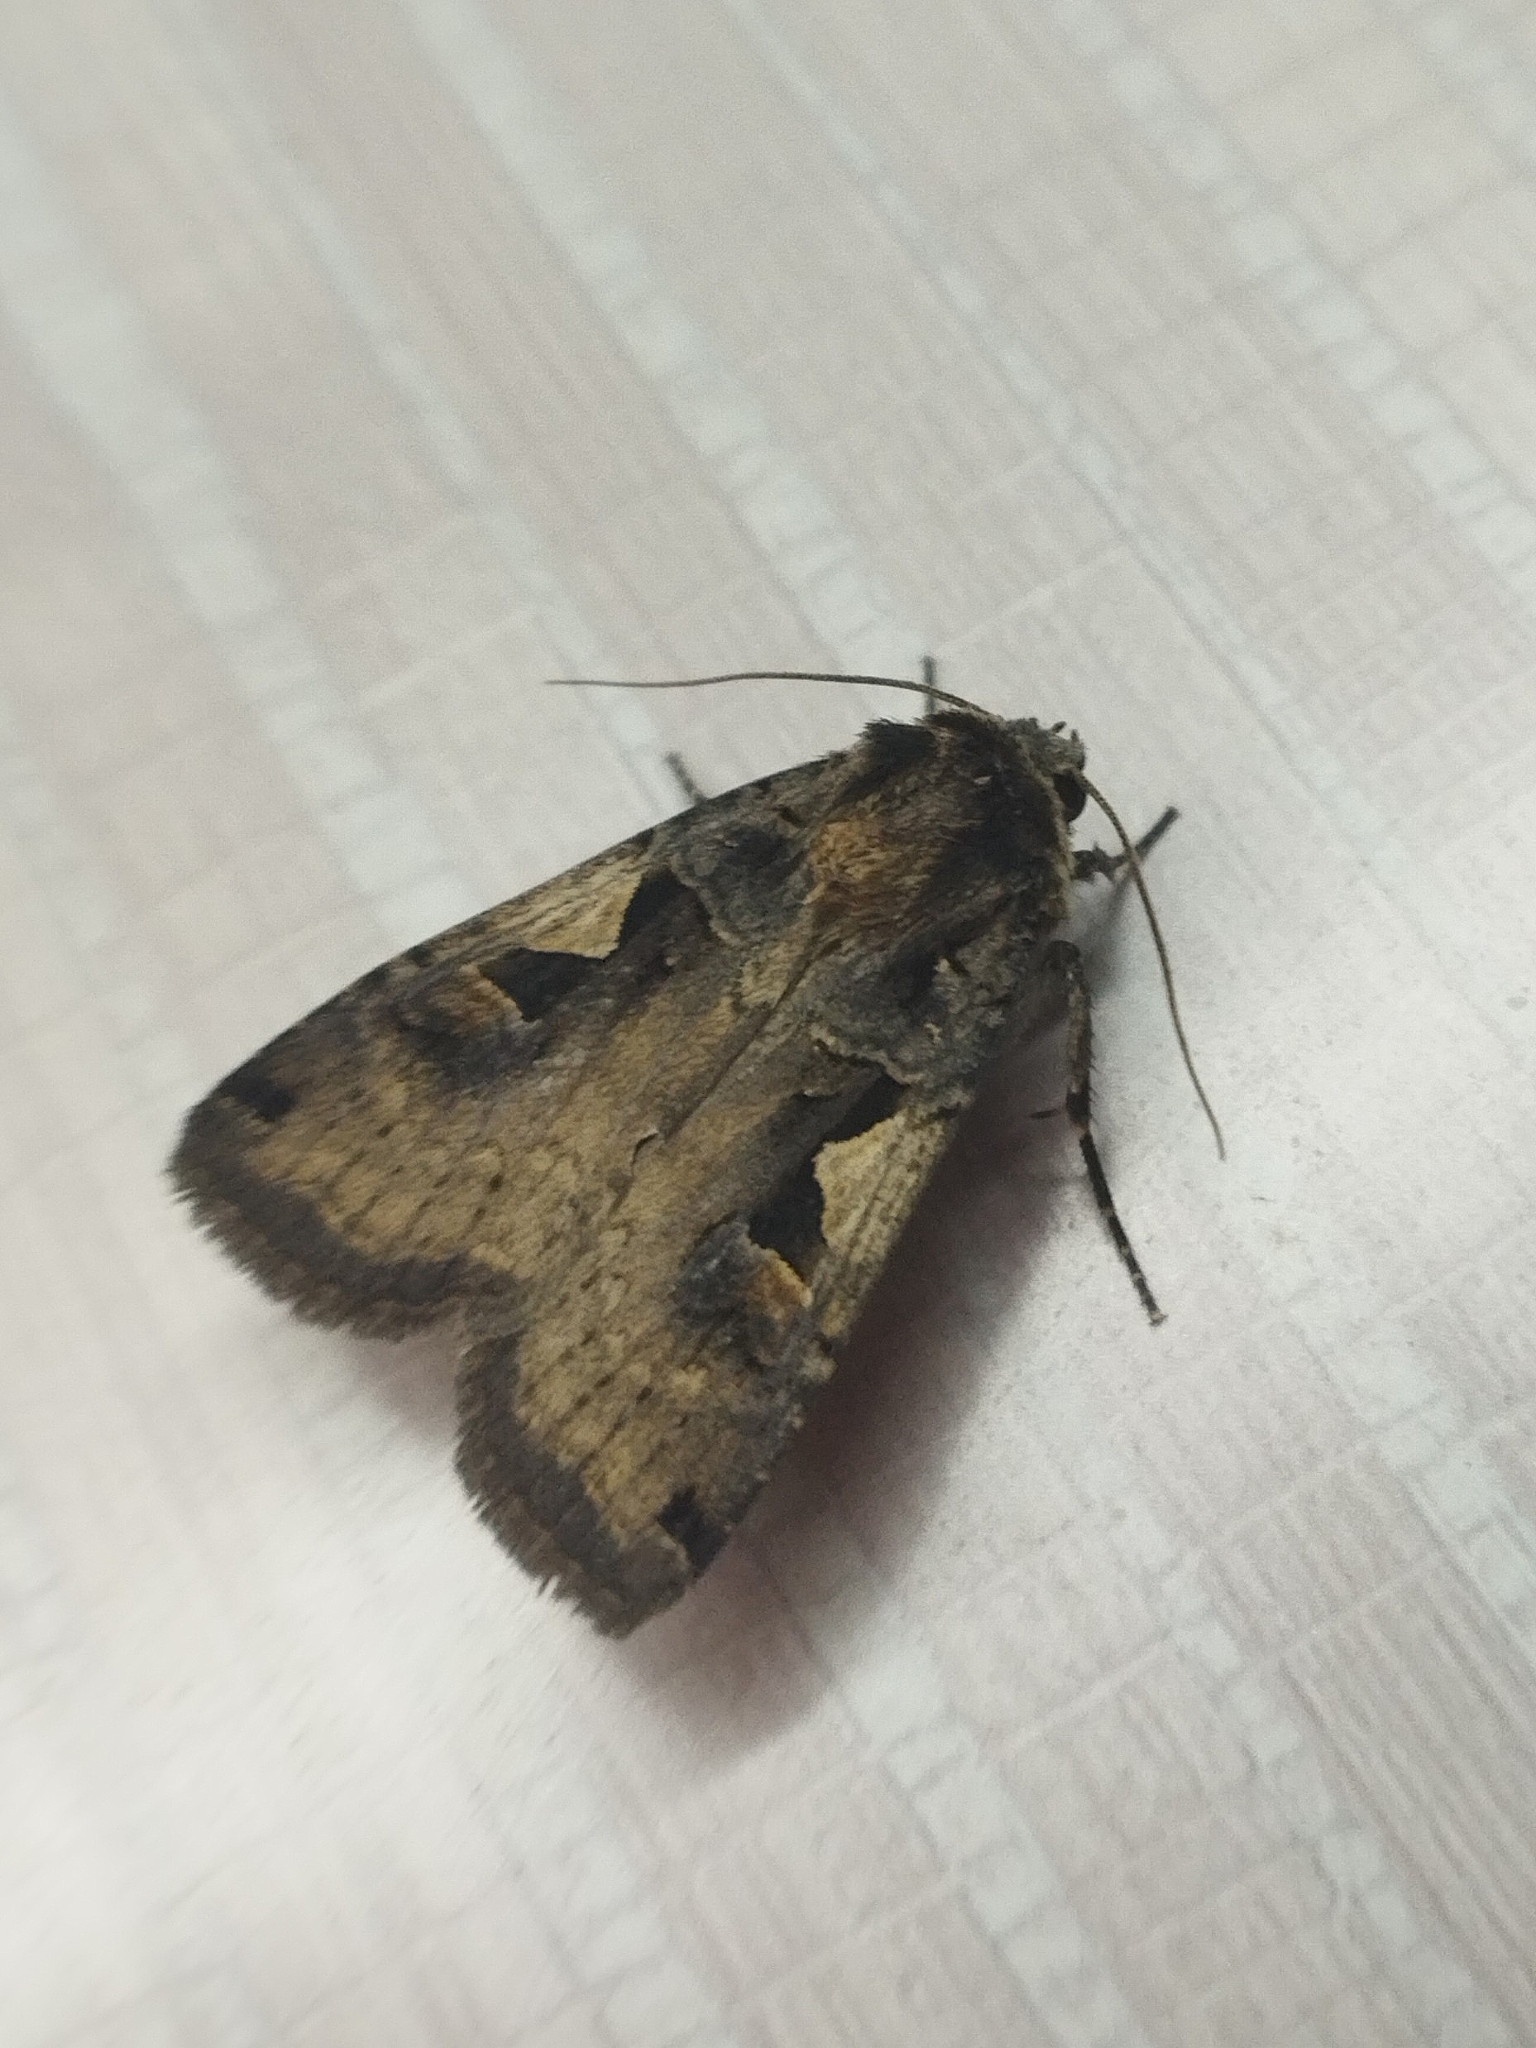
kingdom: Animalia
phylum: Arthropoda
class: Insecta
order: Lepidoptera
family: Noctuidae
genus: Xestia
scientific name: Xestia c-nigrum
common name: Setaceous hebrew character
